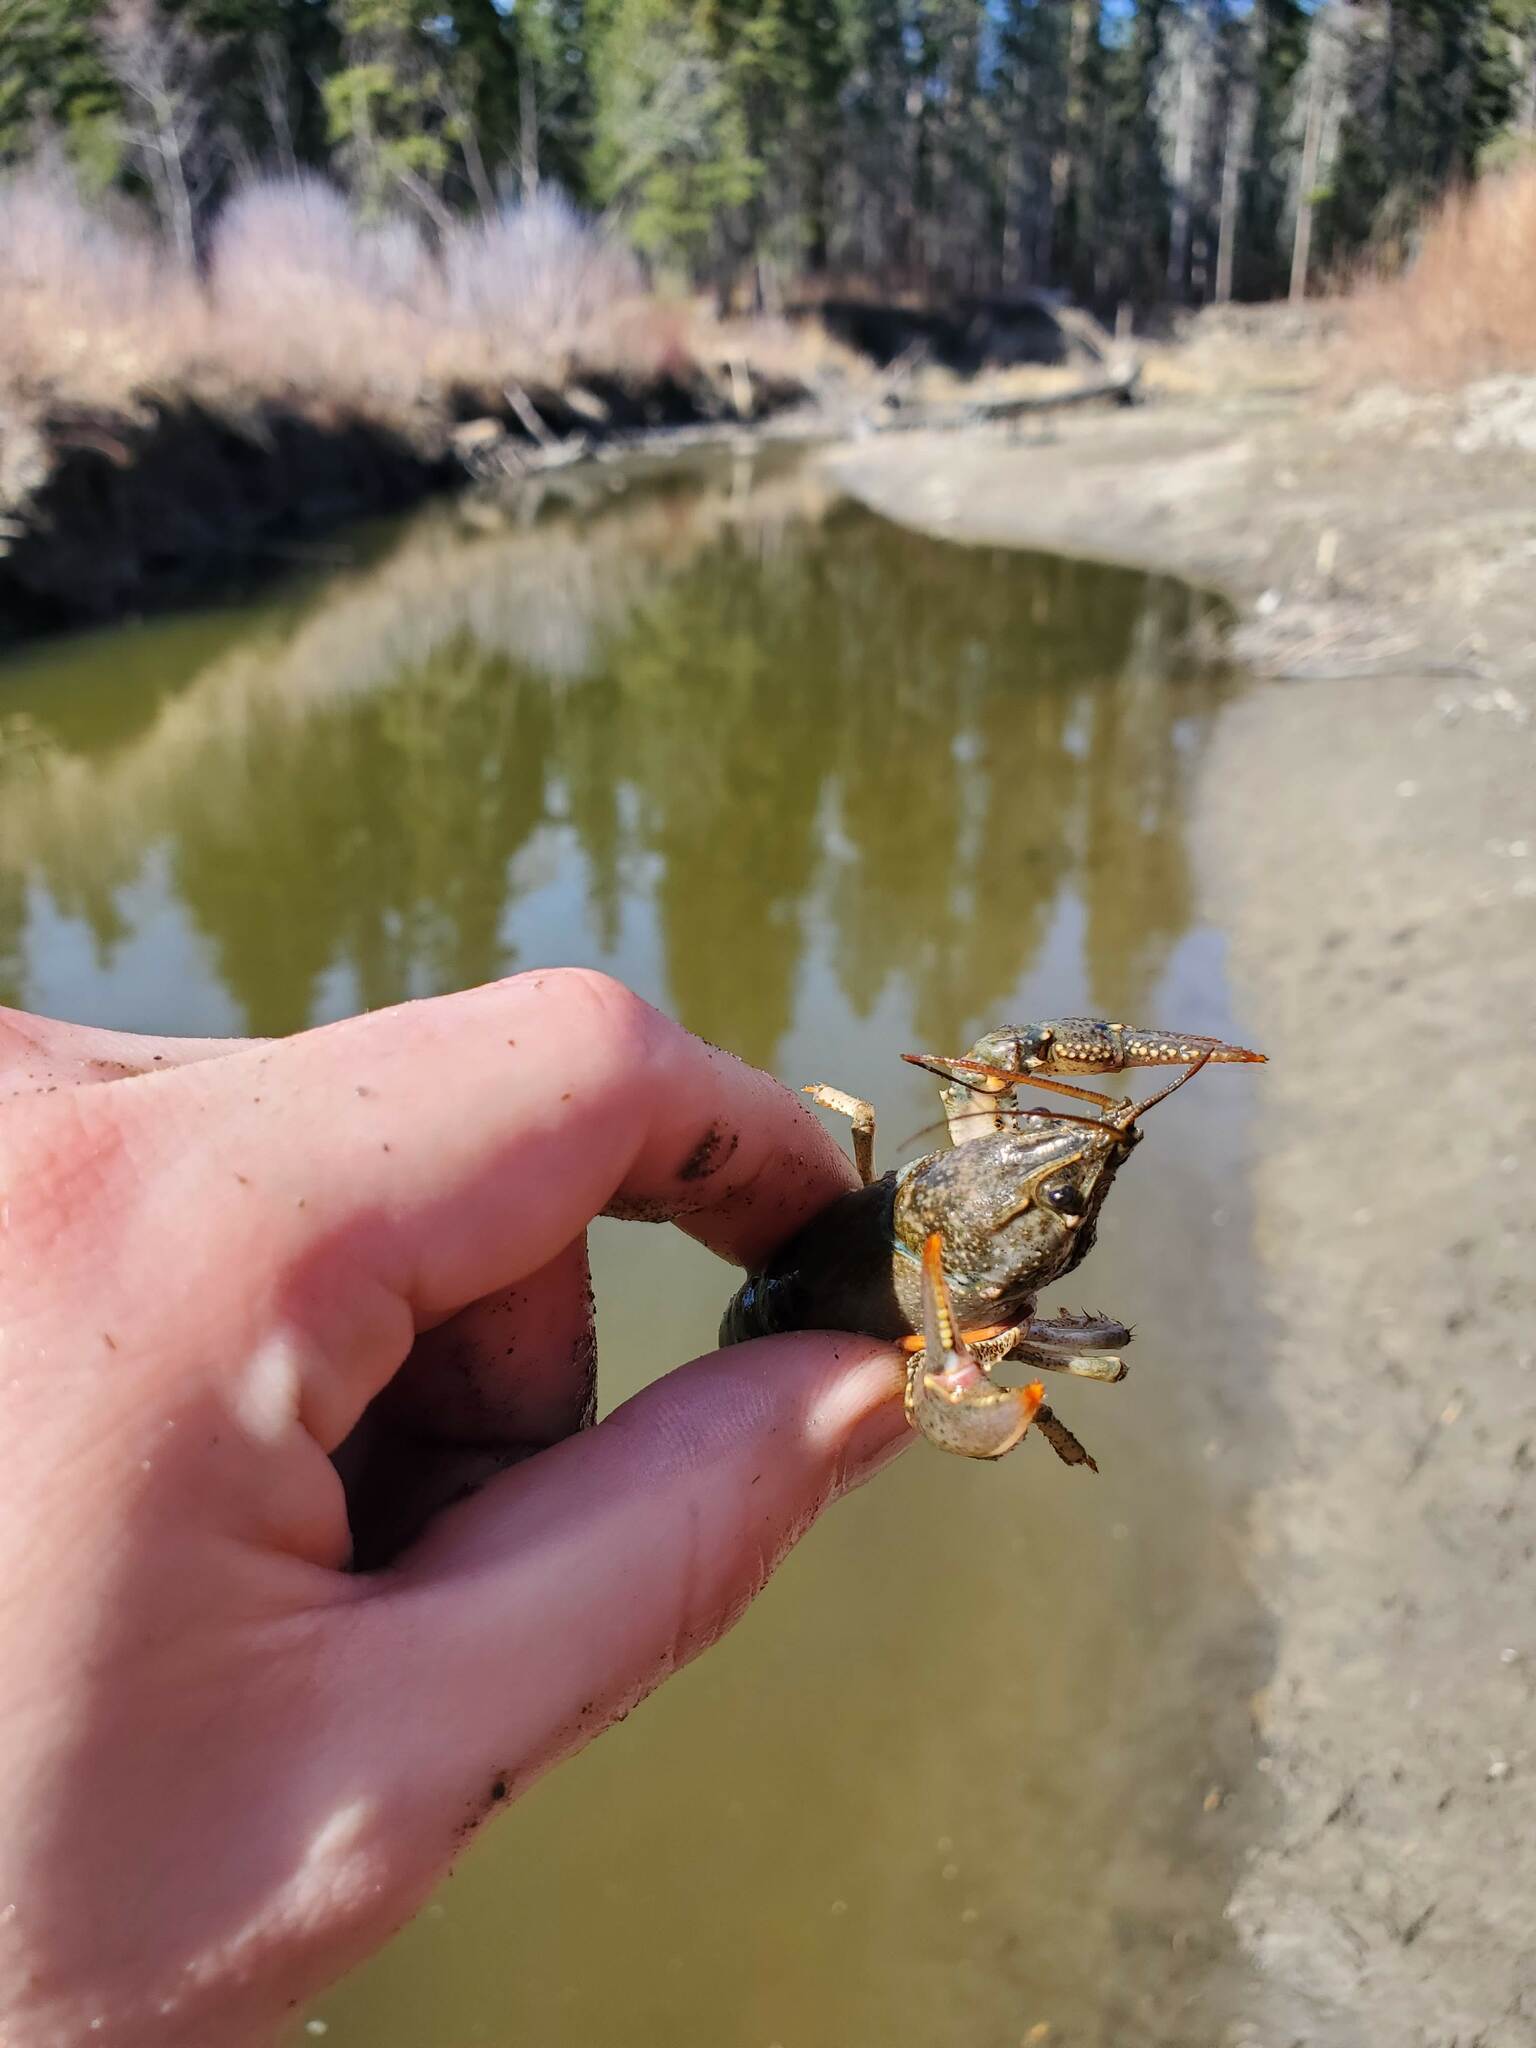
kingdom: Animalia
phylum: Arthropoda
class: Malacostraca
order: Decapoda
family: Cambaridae
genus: Faxonius
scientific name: Faxonius virilis
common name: Virile crayfish
